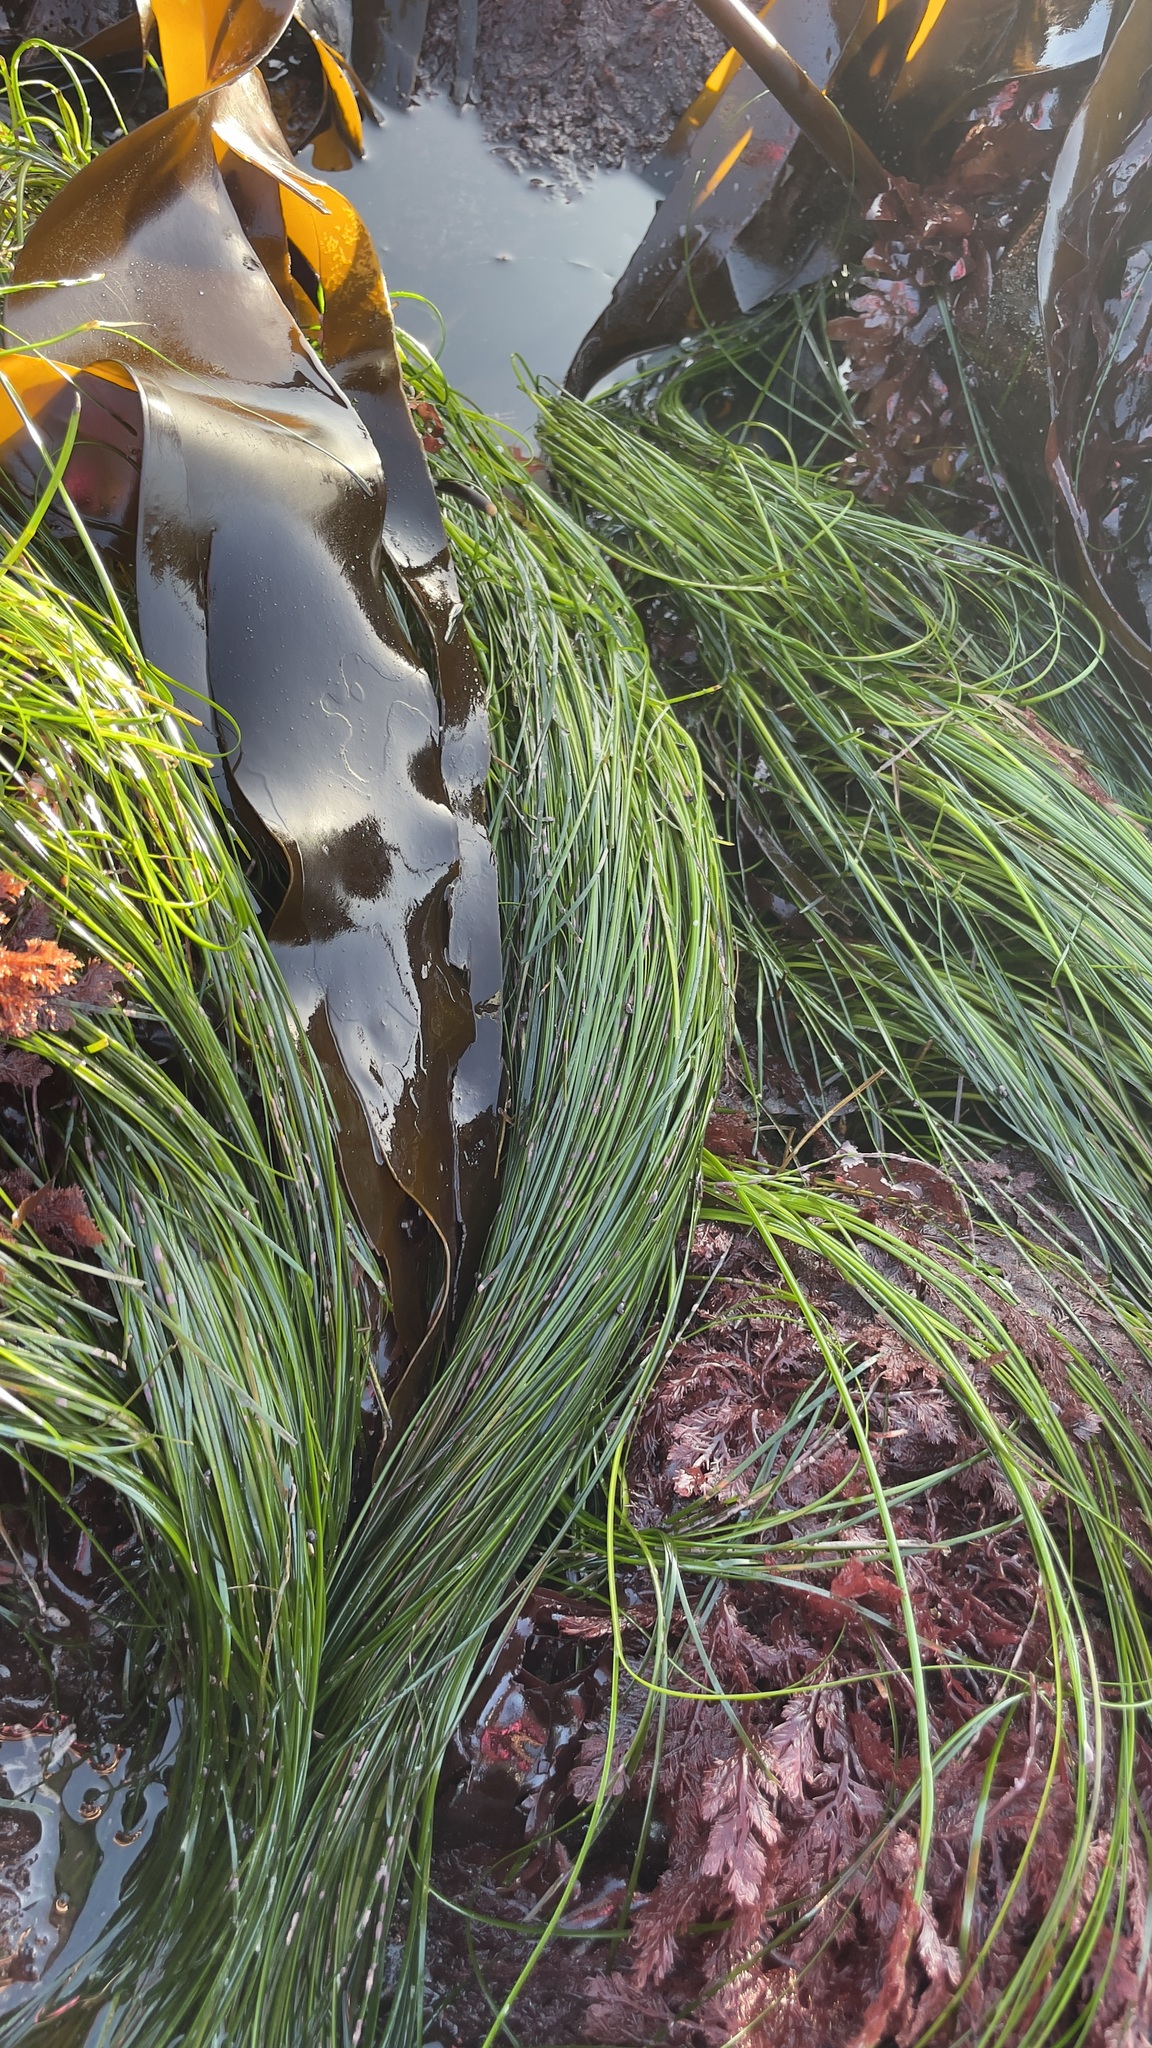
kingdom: Plantae
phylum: Tracheophyta
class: Liliopsida
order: Alismatales
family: Zosteraceae
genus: Phyllospadix
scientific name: Phyllospadix torreyi
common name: Surfgrass
